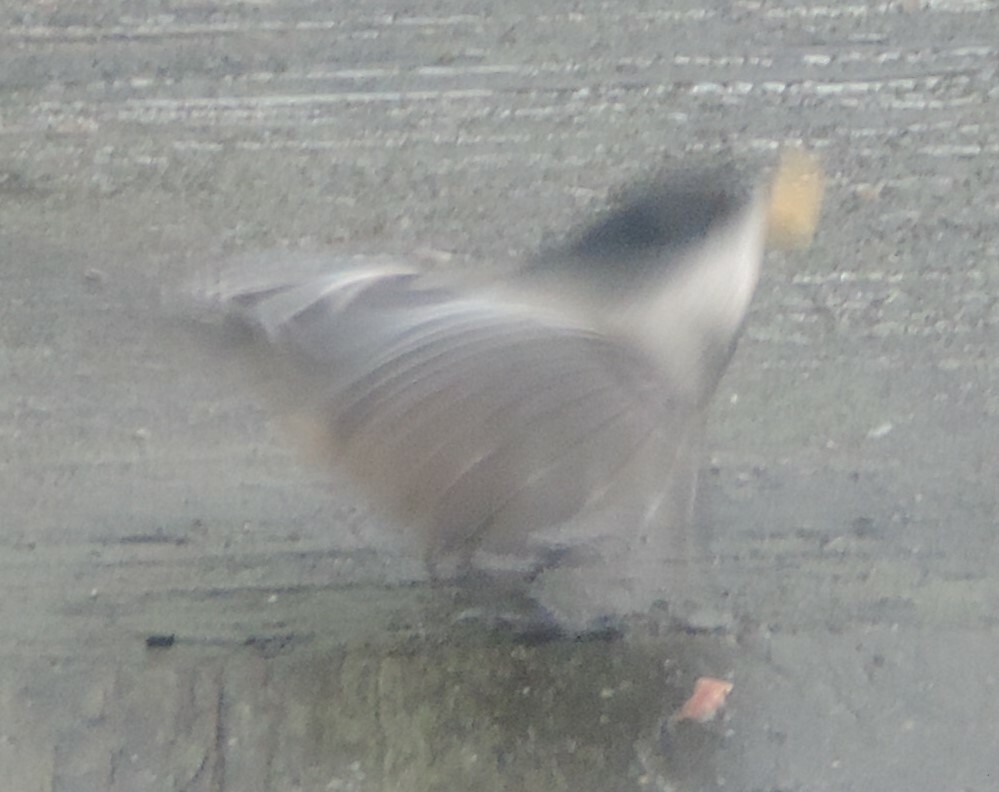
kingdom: Animalia
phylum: Chordata
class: Aves
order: Passeriformes
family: Paridae
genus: Poecile
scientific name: Poecile atricapillus
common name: Black-capped chickadee
